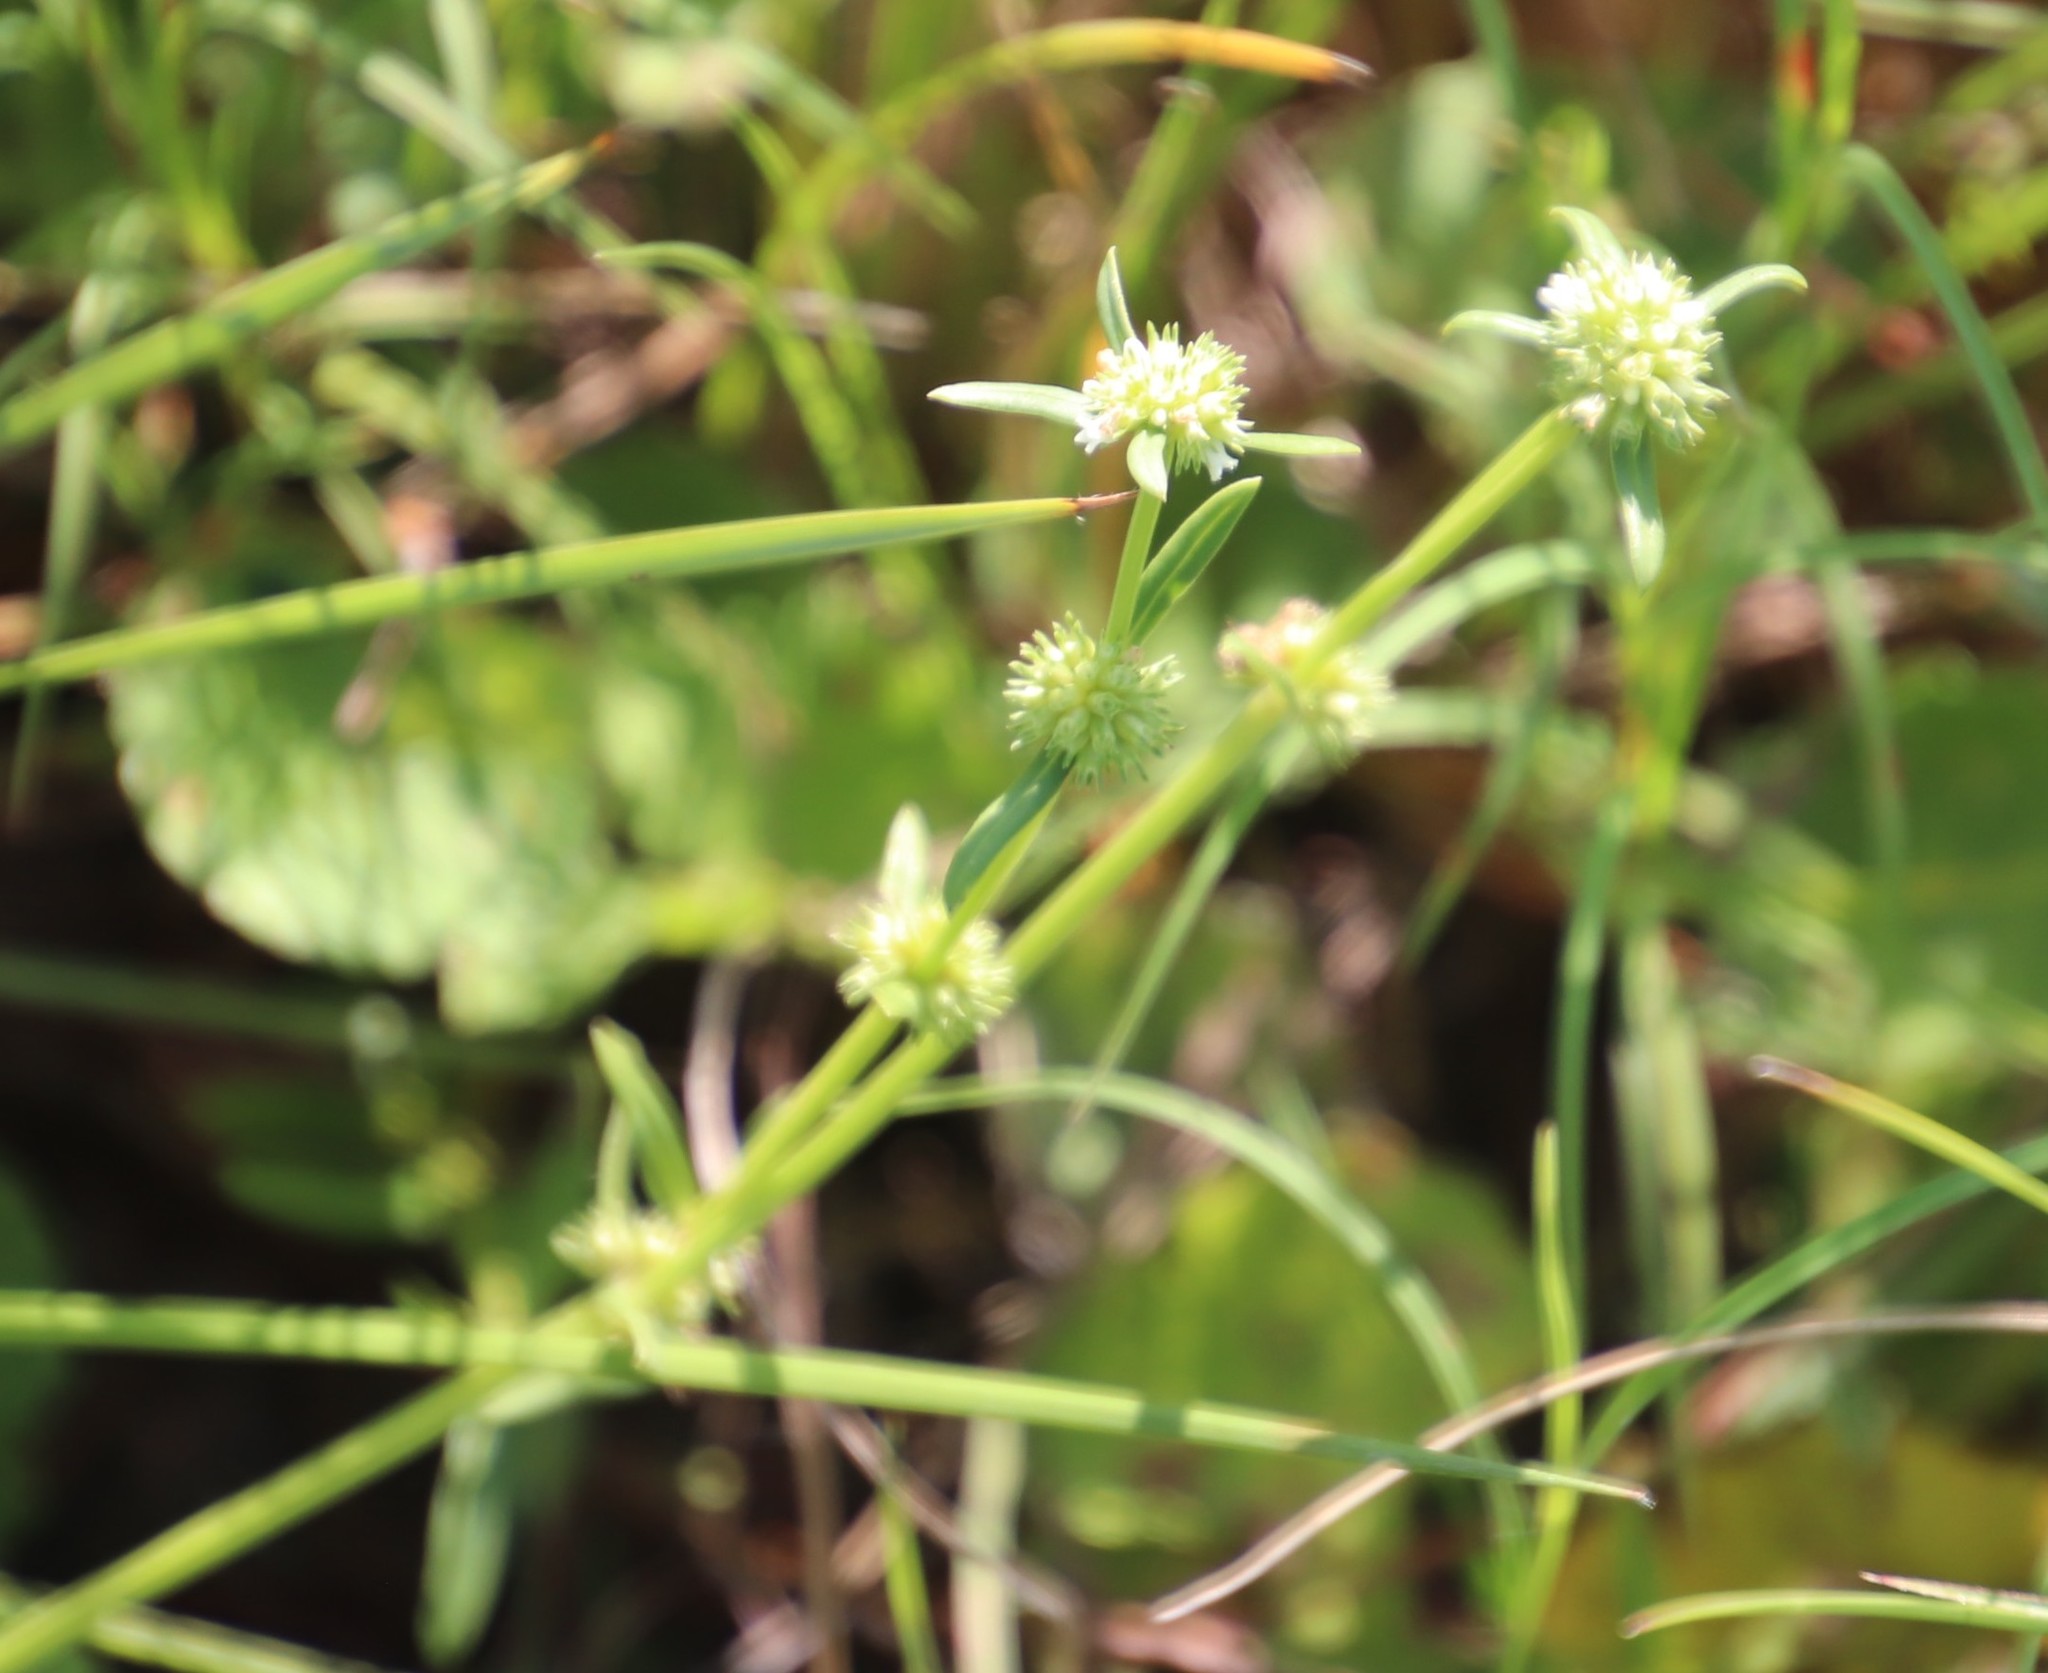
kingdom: Plantae
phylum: Tracheophyta
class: Magnoliopsida
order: Gentianales
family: Rubiaceae
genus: Spermacoce
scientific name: Spermacoce natalensis
